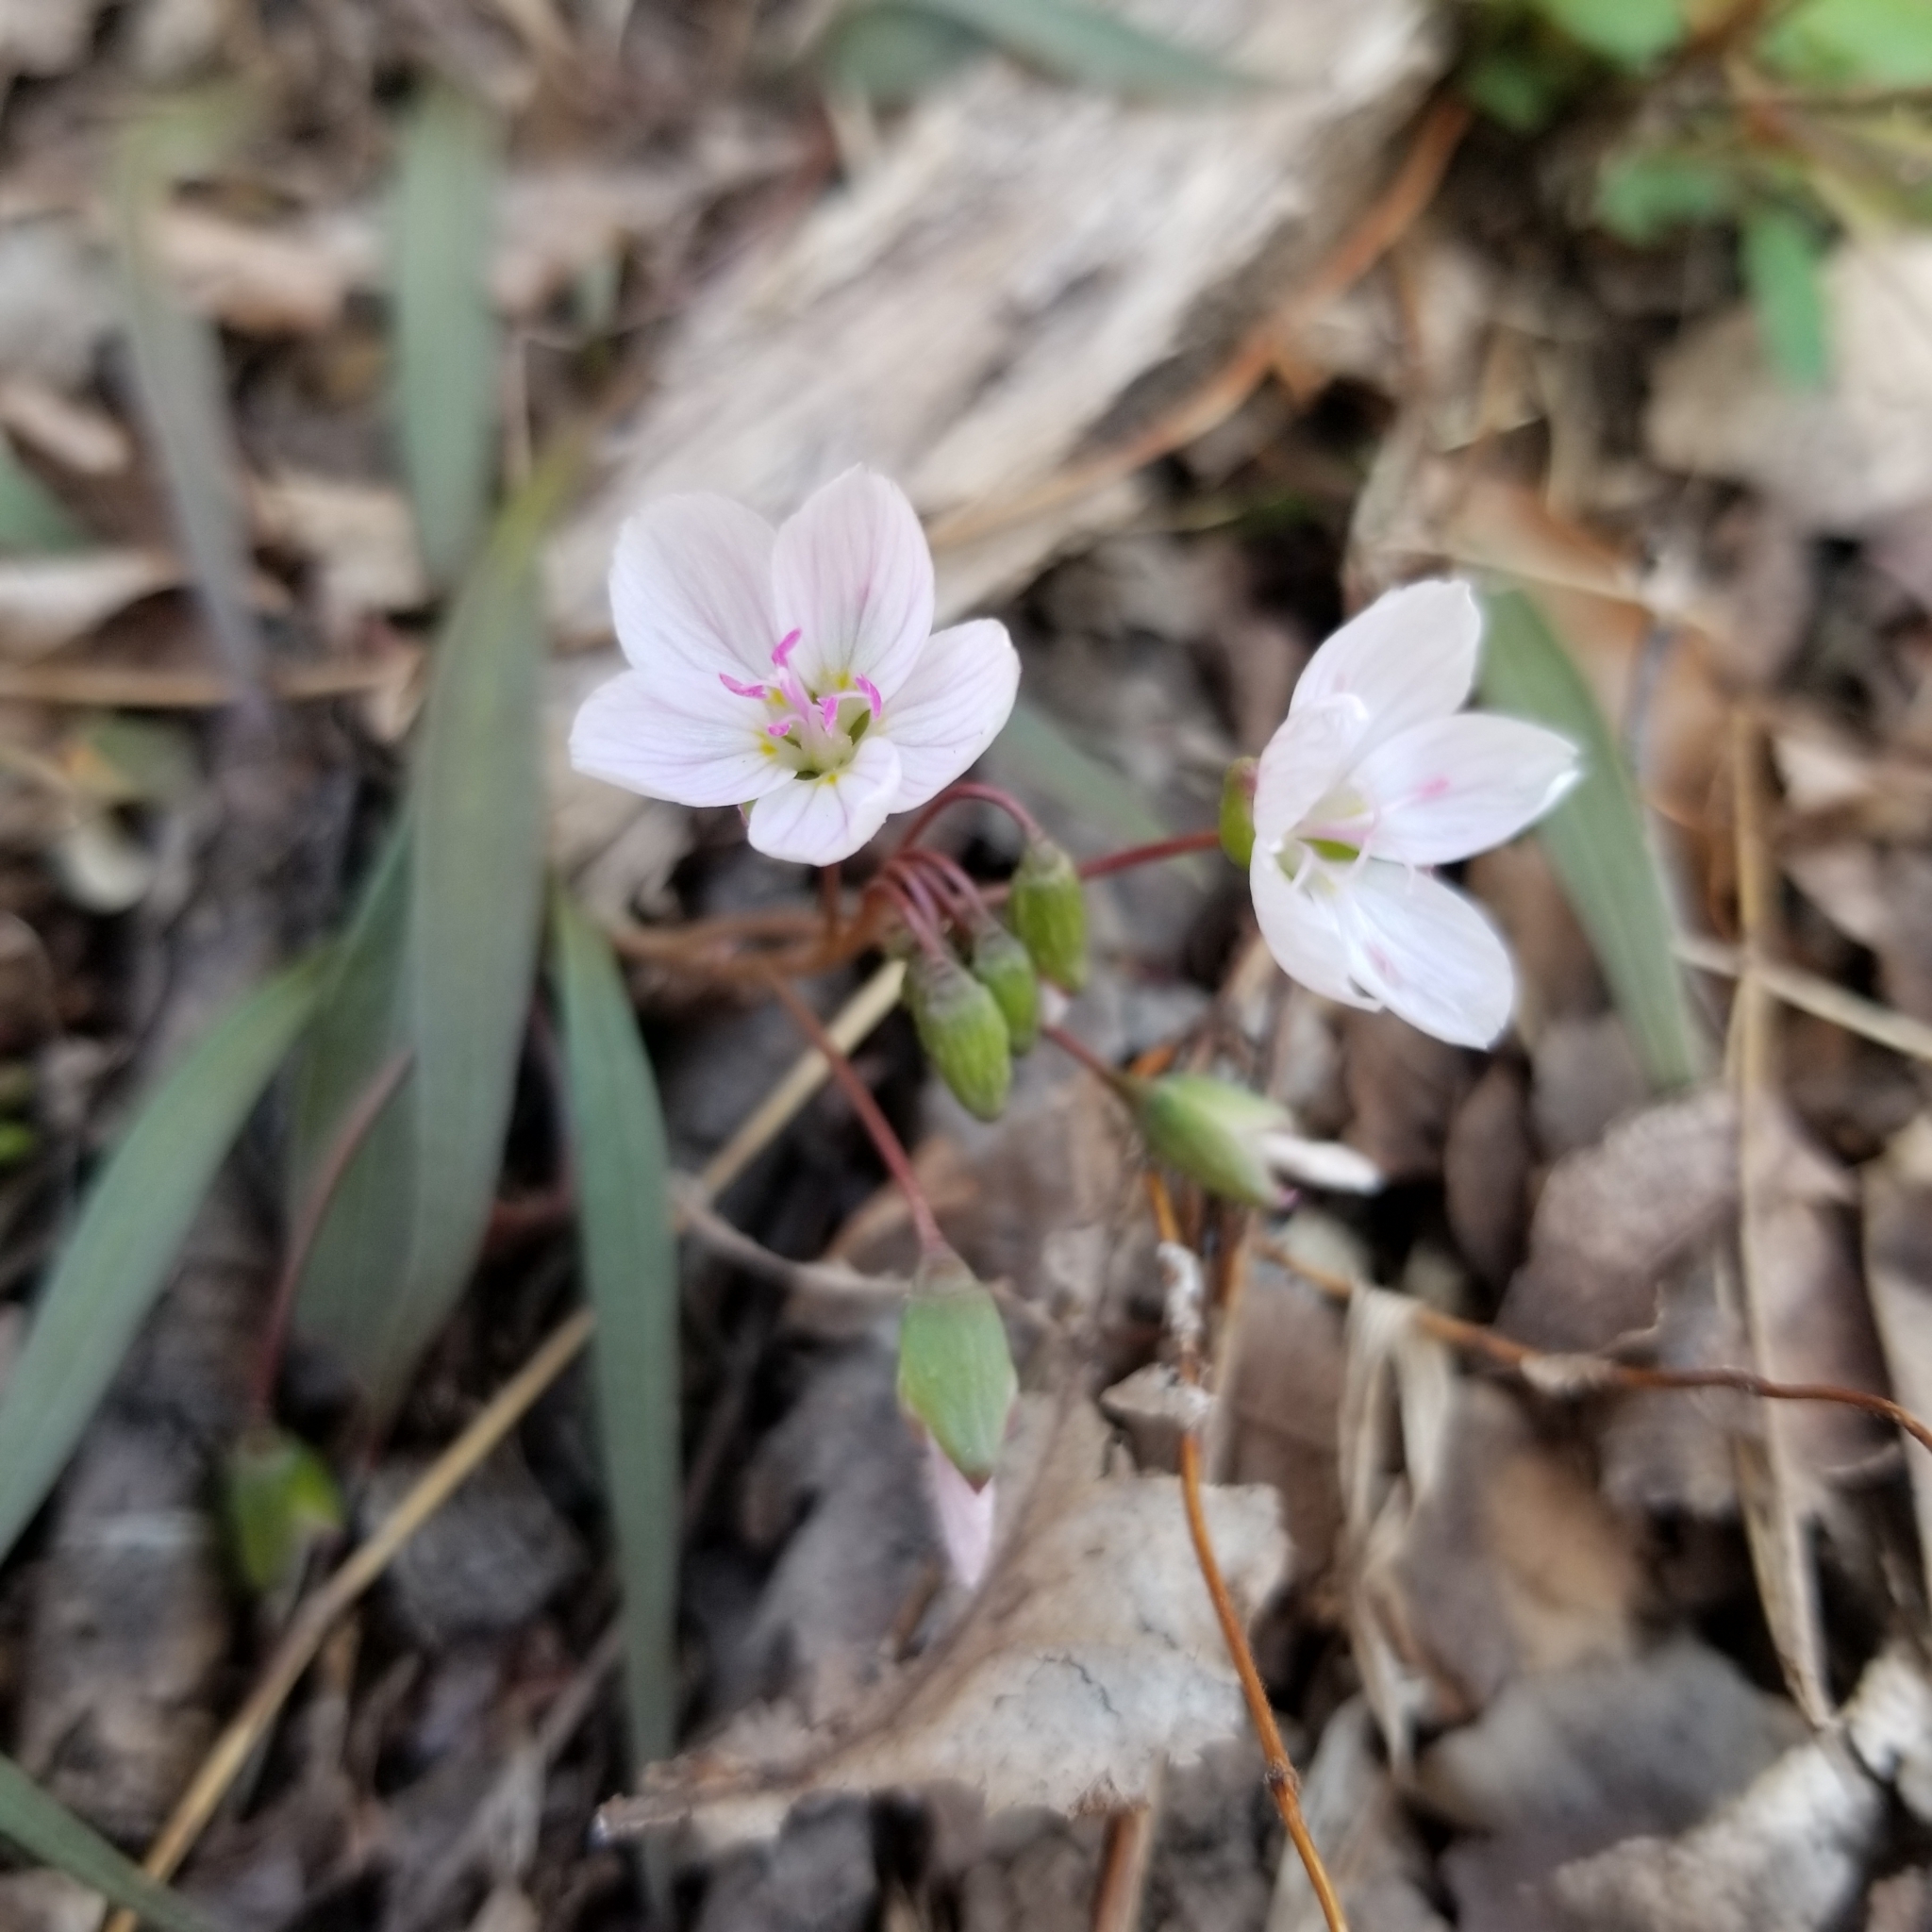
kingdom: Plantae
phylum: Tracheophyta
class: Magnoliopsida
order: Caryophyllales
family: Montiaceae
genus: Claytonia
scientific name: Claytonia virginica
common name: Virginia springbeauty
